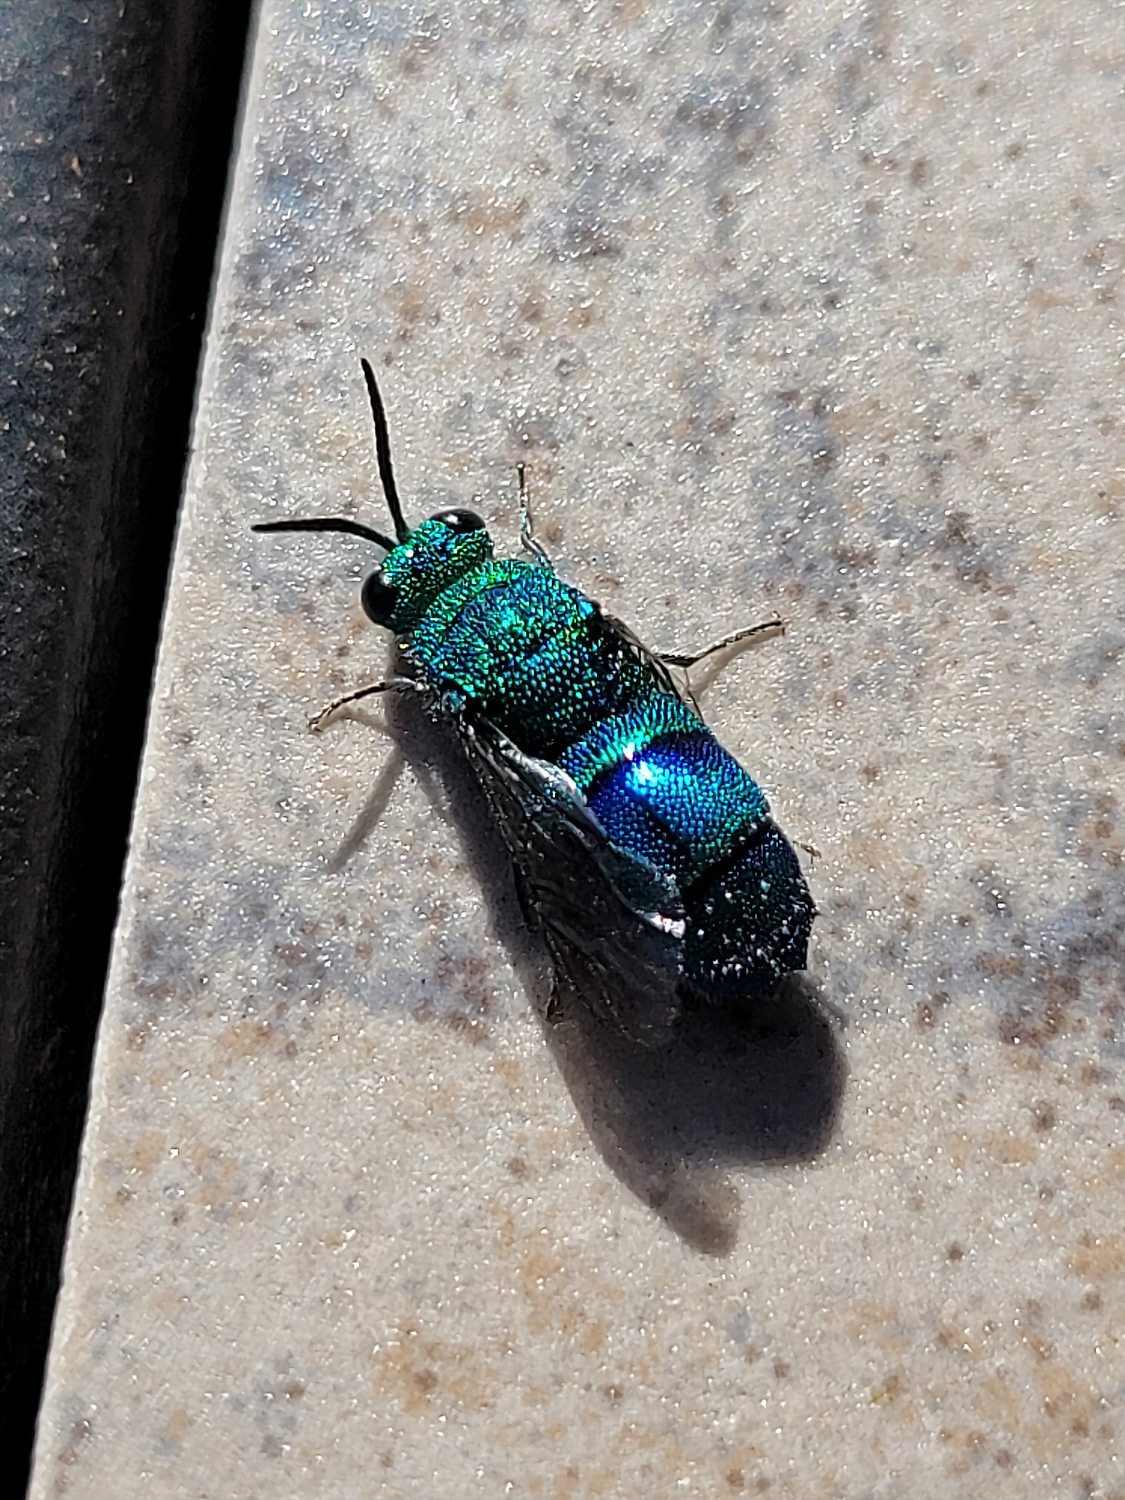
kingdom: Animalia
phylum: Arthropoda
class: Insecta
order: Hymenoptera
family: Chrysididae
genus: Chrysis
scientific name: Chrysis conica
